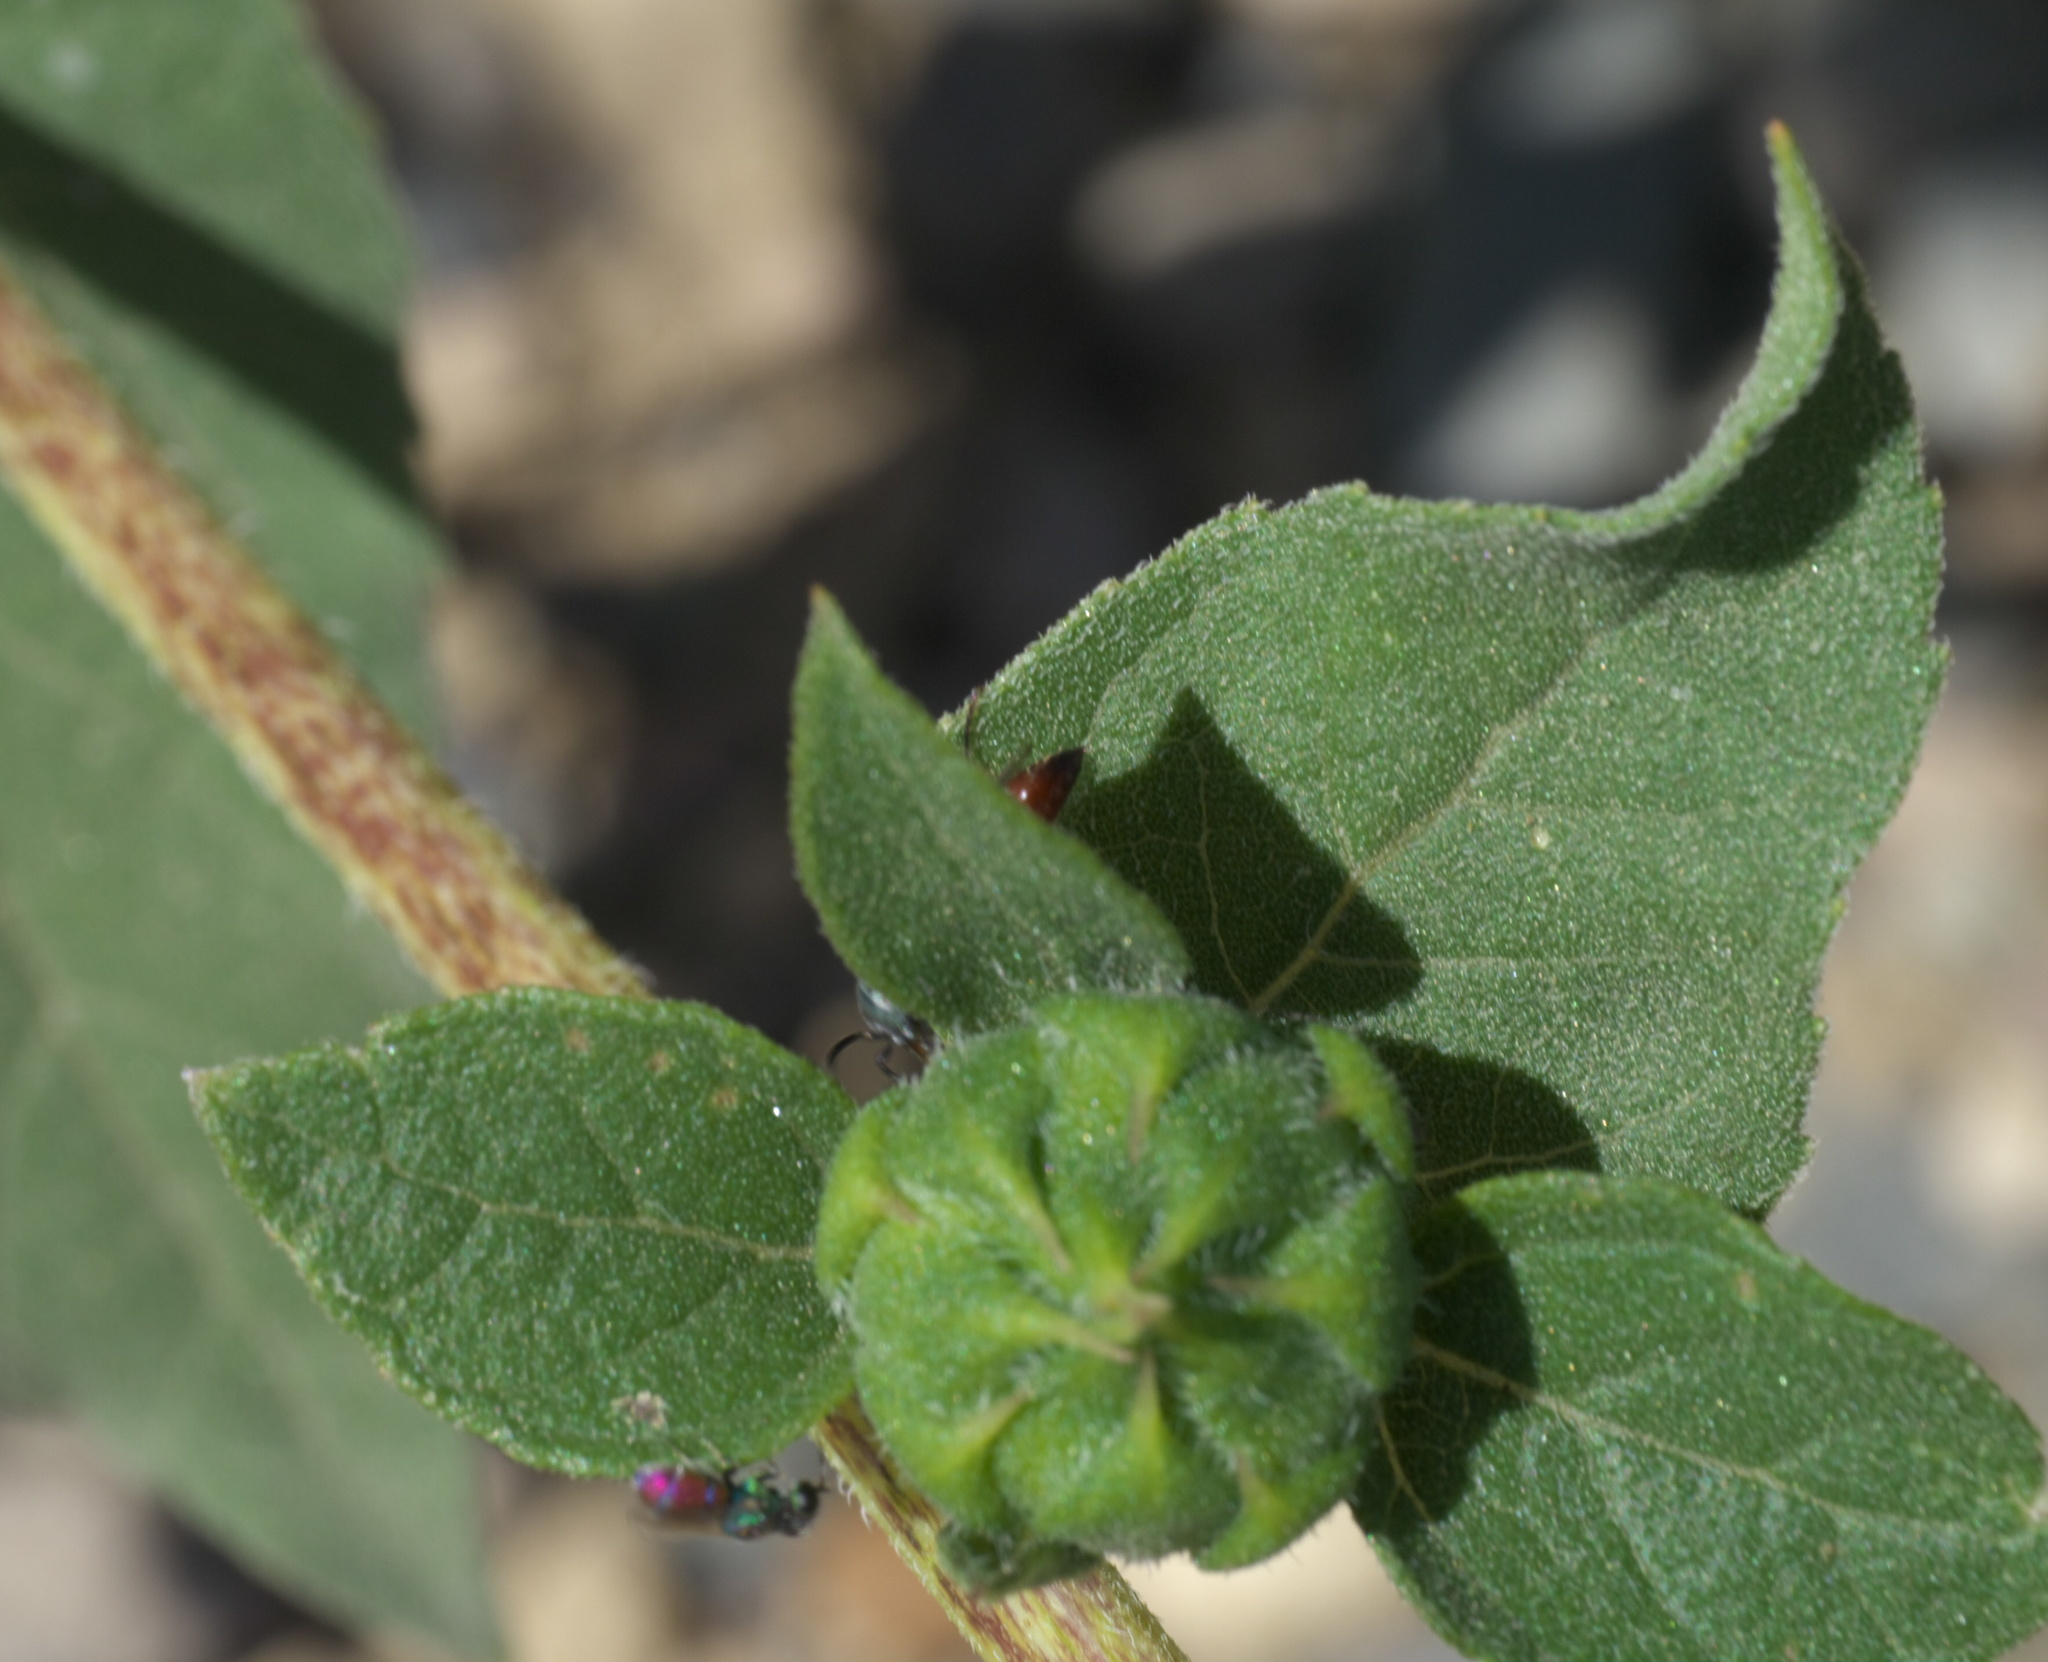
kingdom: Animalia
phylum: Arthropoda
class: Insecta
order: Hymenoptera
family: Chrysididae
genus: Argochrysis
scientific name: Argochrysis
